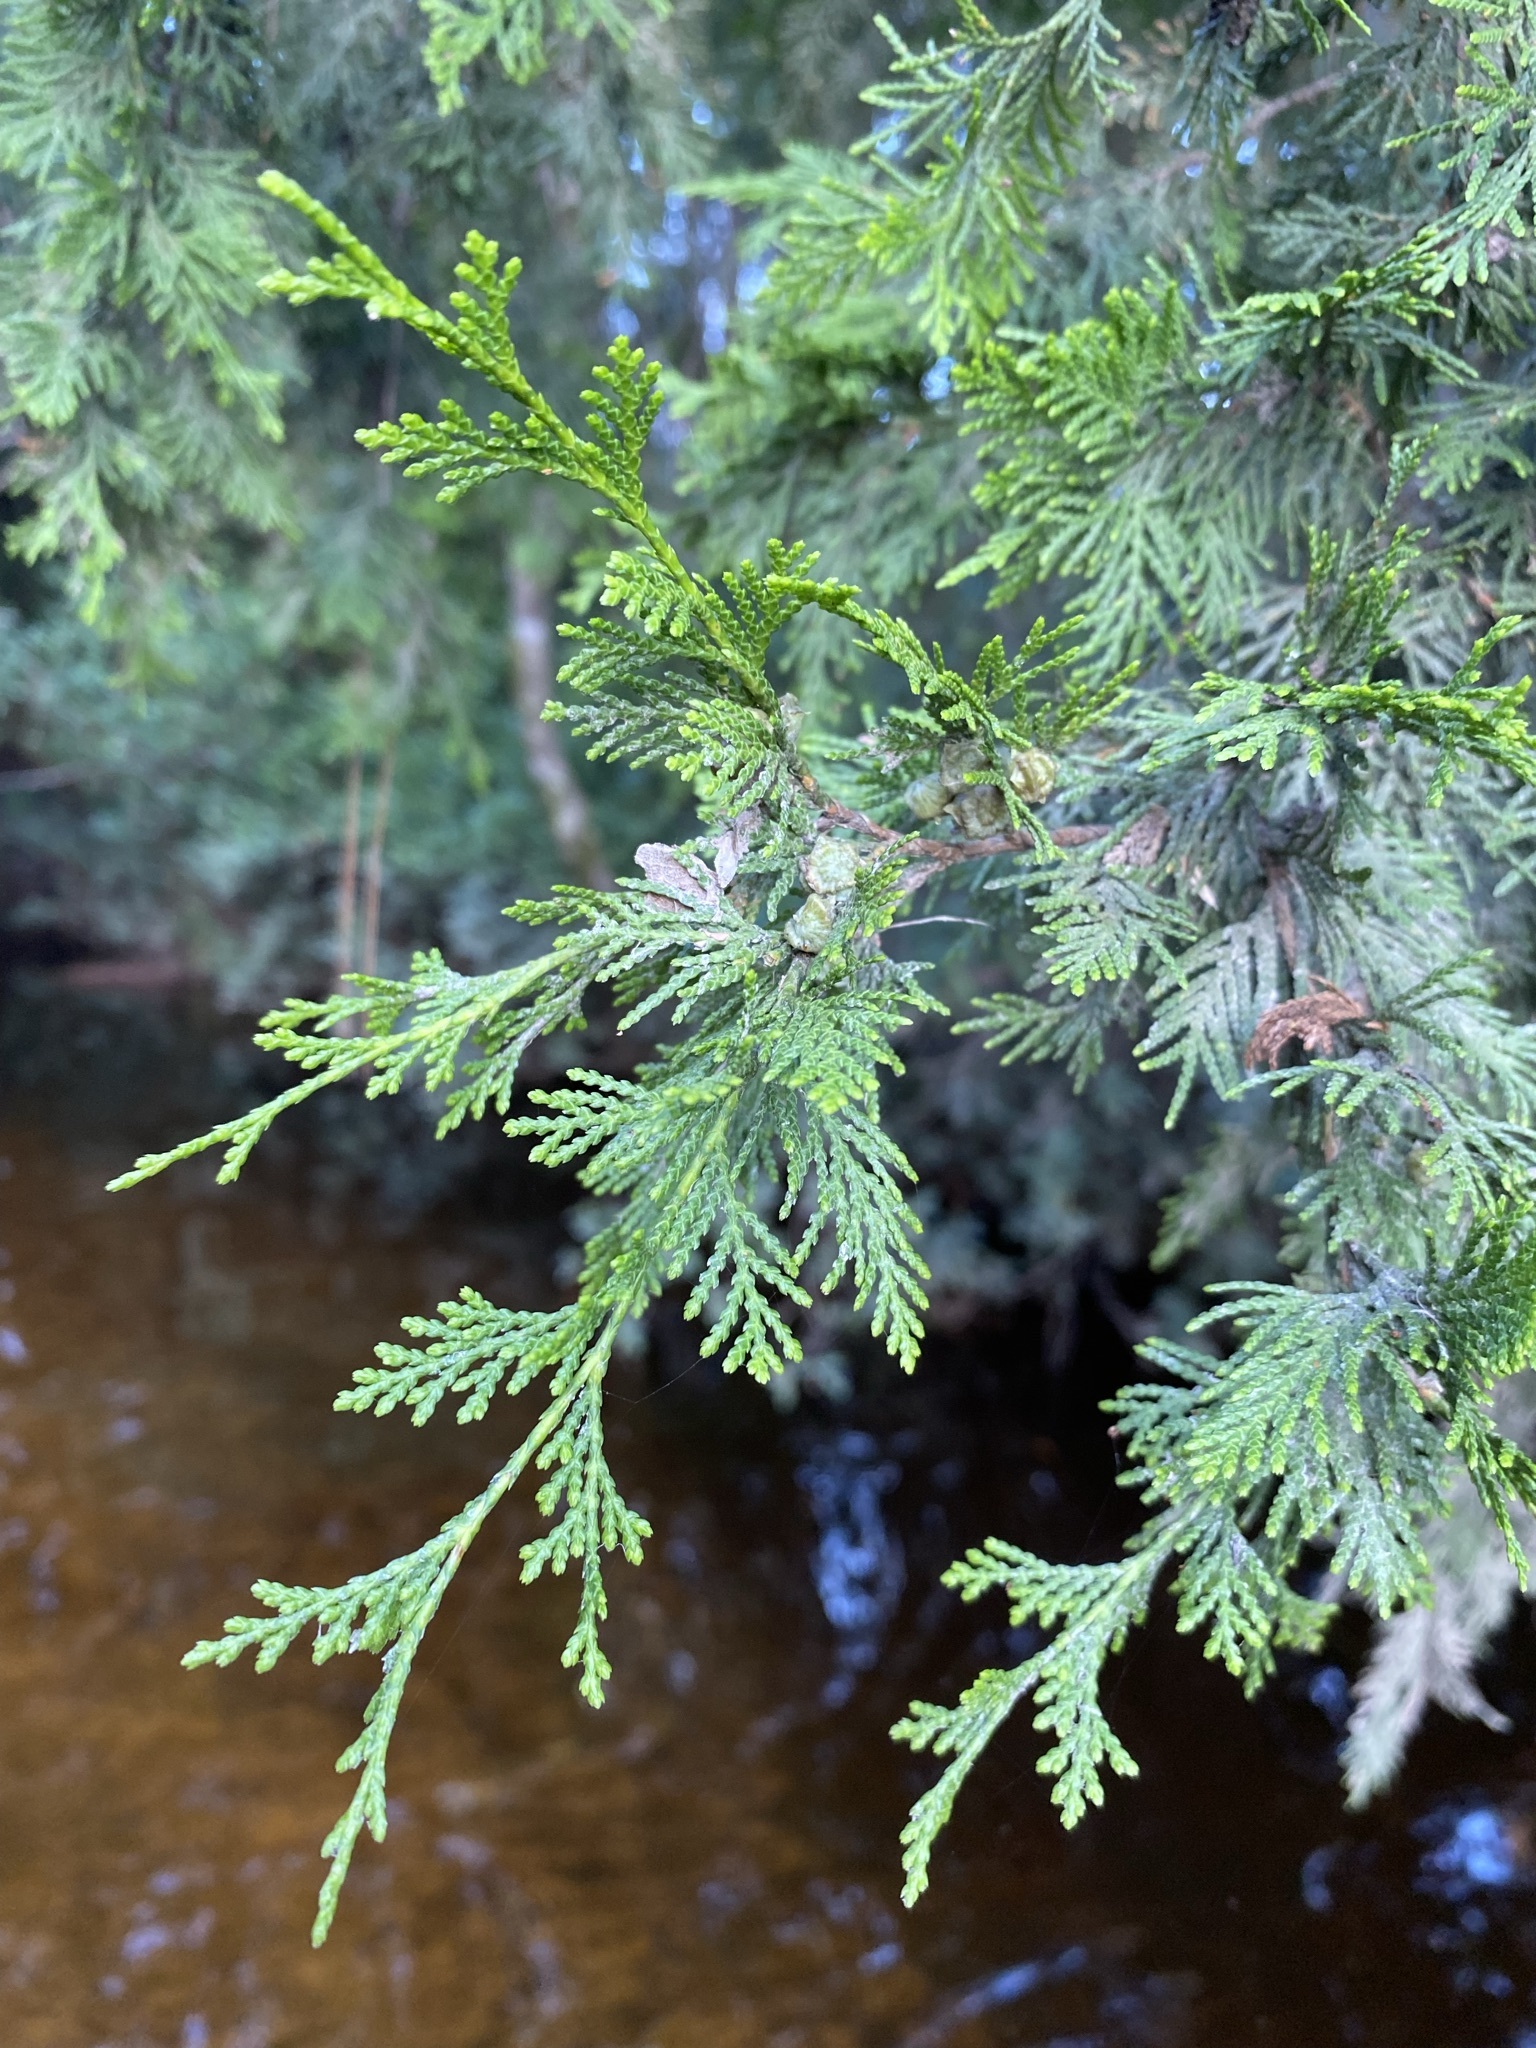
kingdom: Plantae
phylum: Tracheophyta
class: Pinopsida
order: Pinales
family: Cupressaceae
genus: Chamaecyparis
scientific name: Chamaecyparis thyoides
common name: Atlantic white cedar
